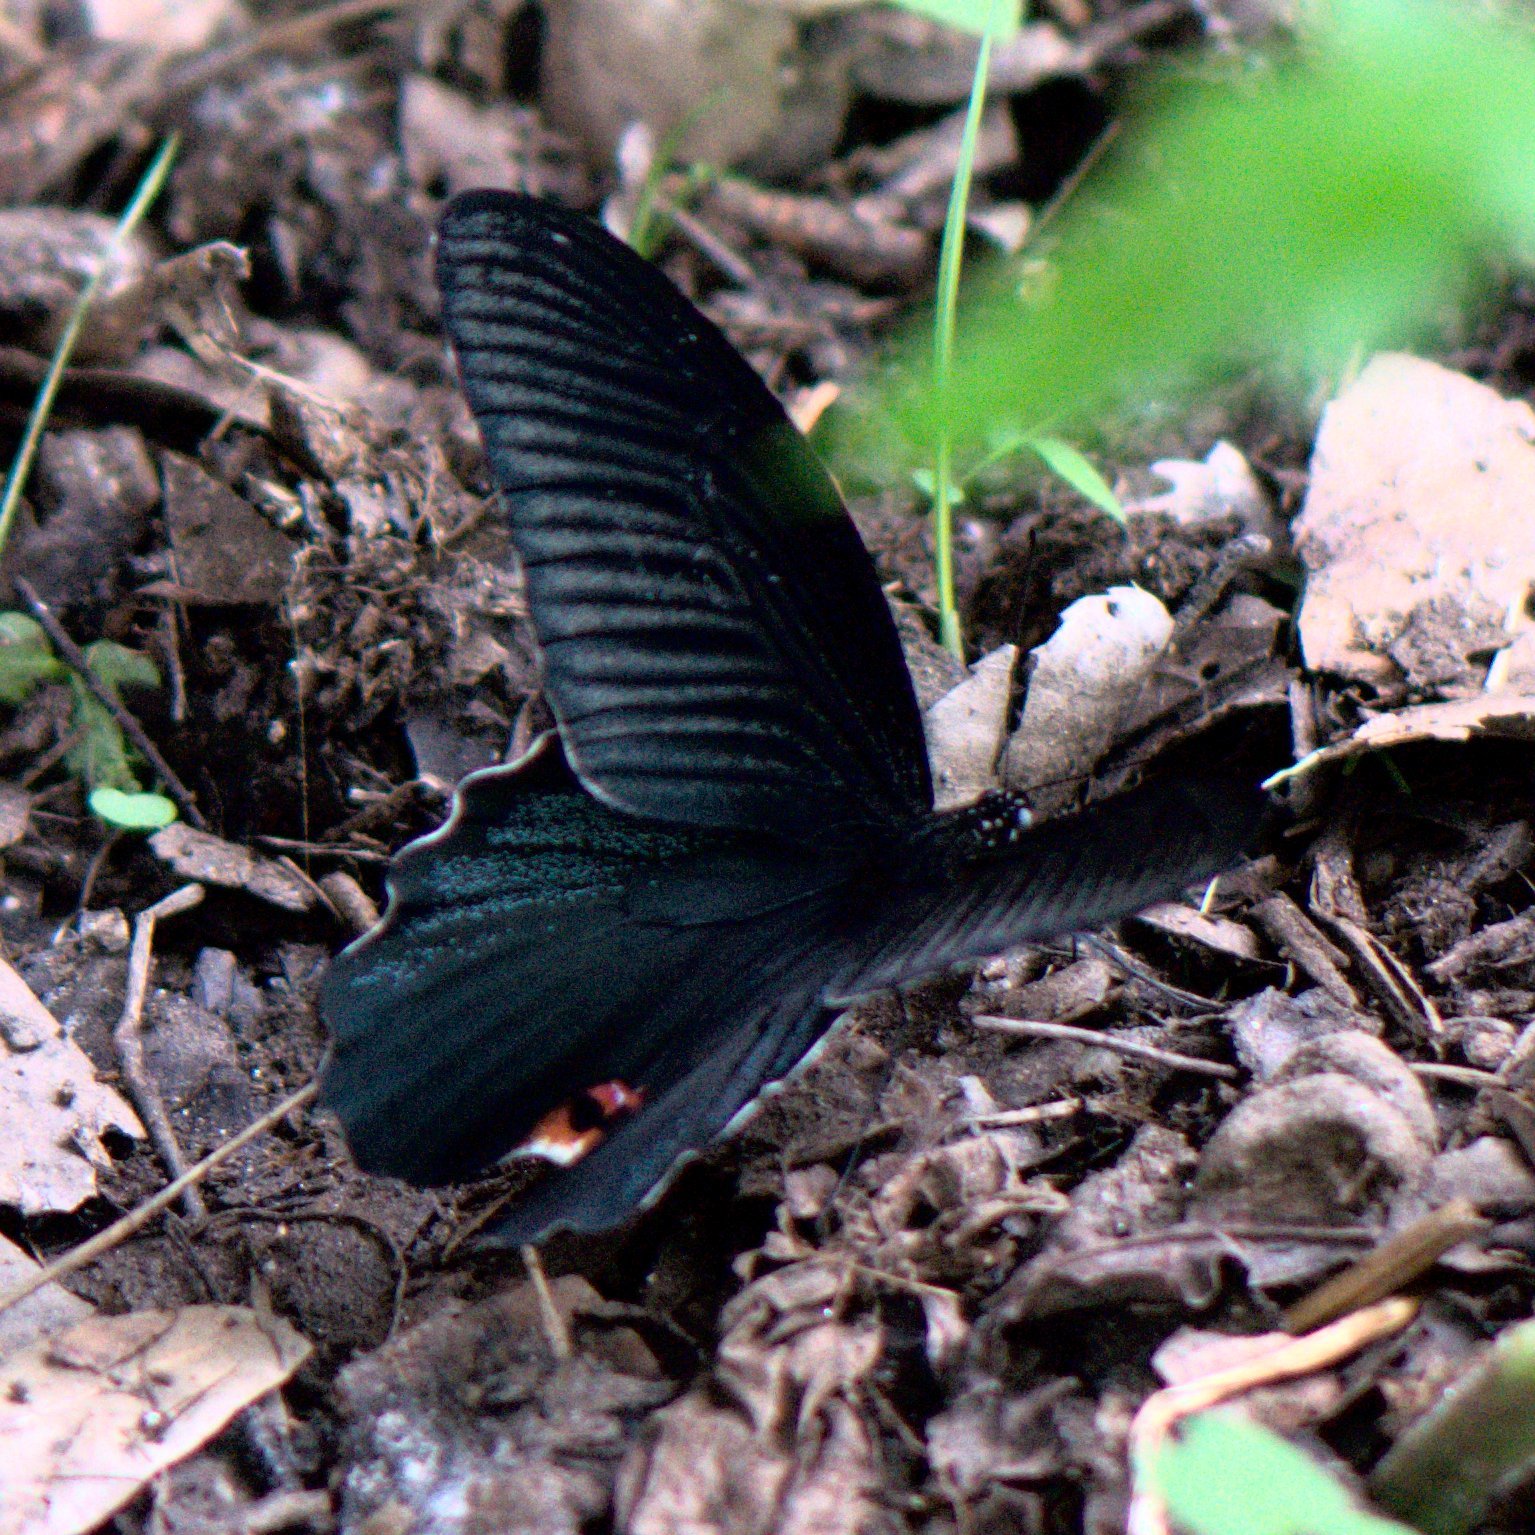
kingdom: Animalia
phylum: Arthropoda
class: Insecta
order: Lepidoptera
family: Papilionidae
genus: Papilio
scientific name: Papilio protenor
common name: Spangle
